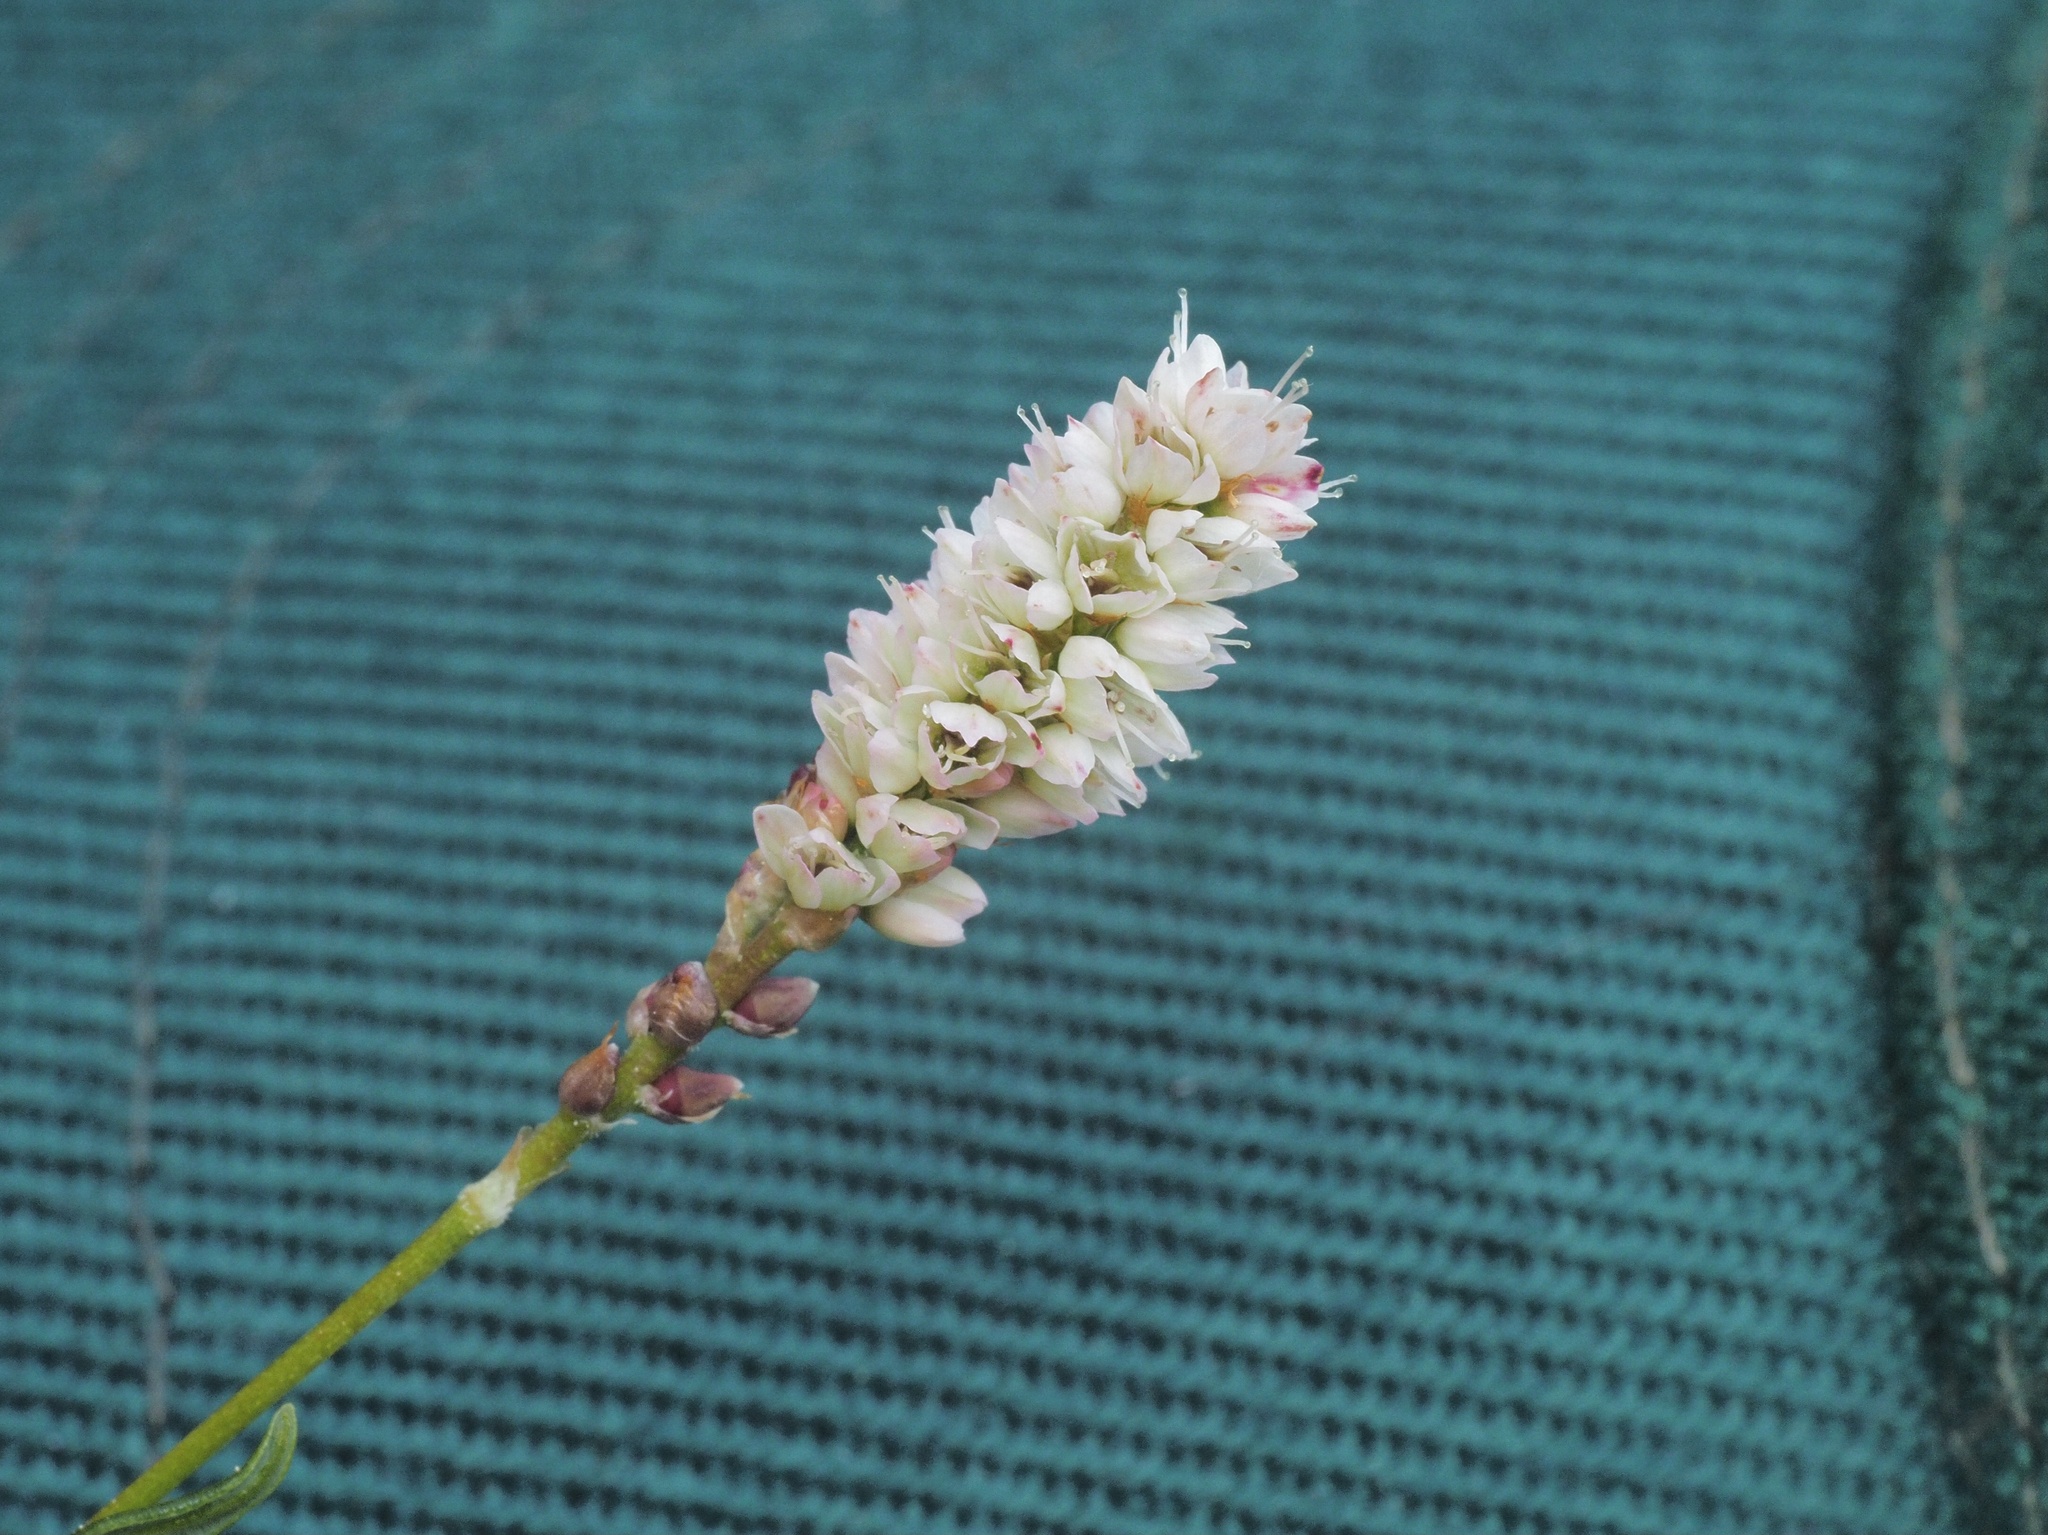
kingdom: Plantae
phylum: Tracheophyta
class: Magnoliopsida
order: Caryophyllales
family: Polygonaceae
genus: Bistorta
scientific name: Bistorta vivipara
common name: Alpine bistort
